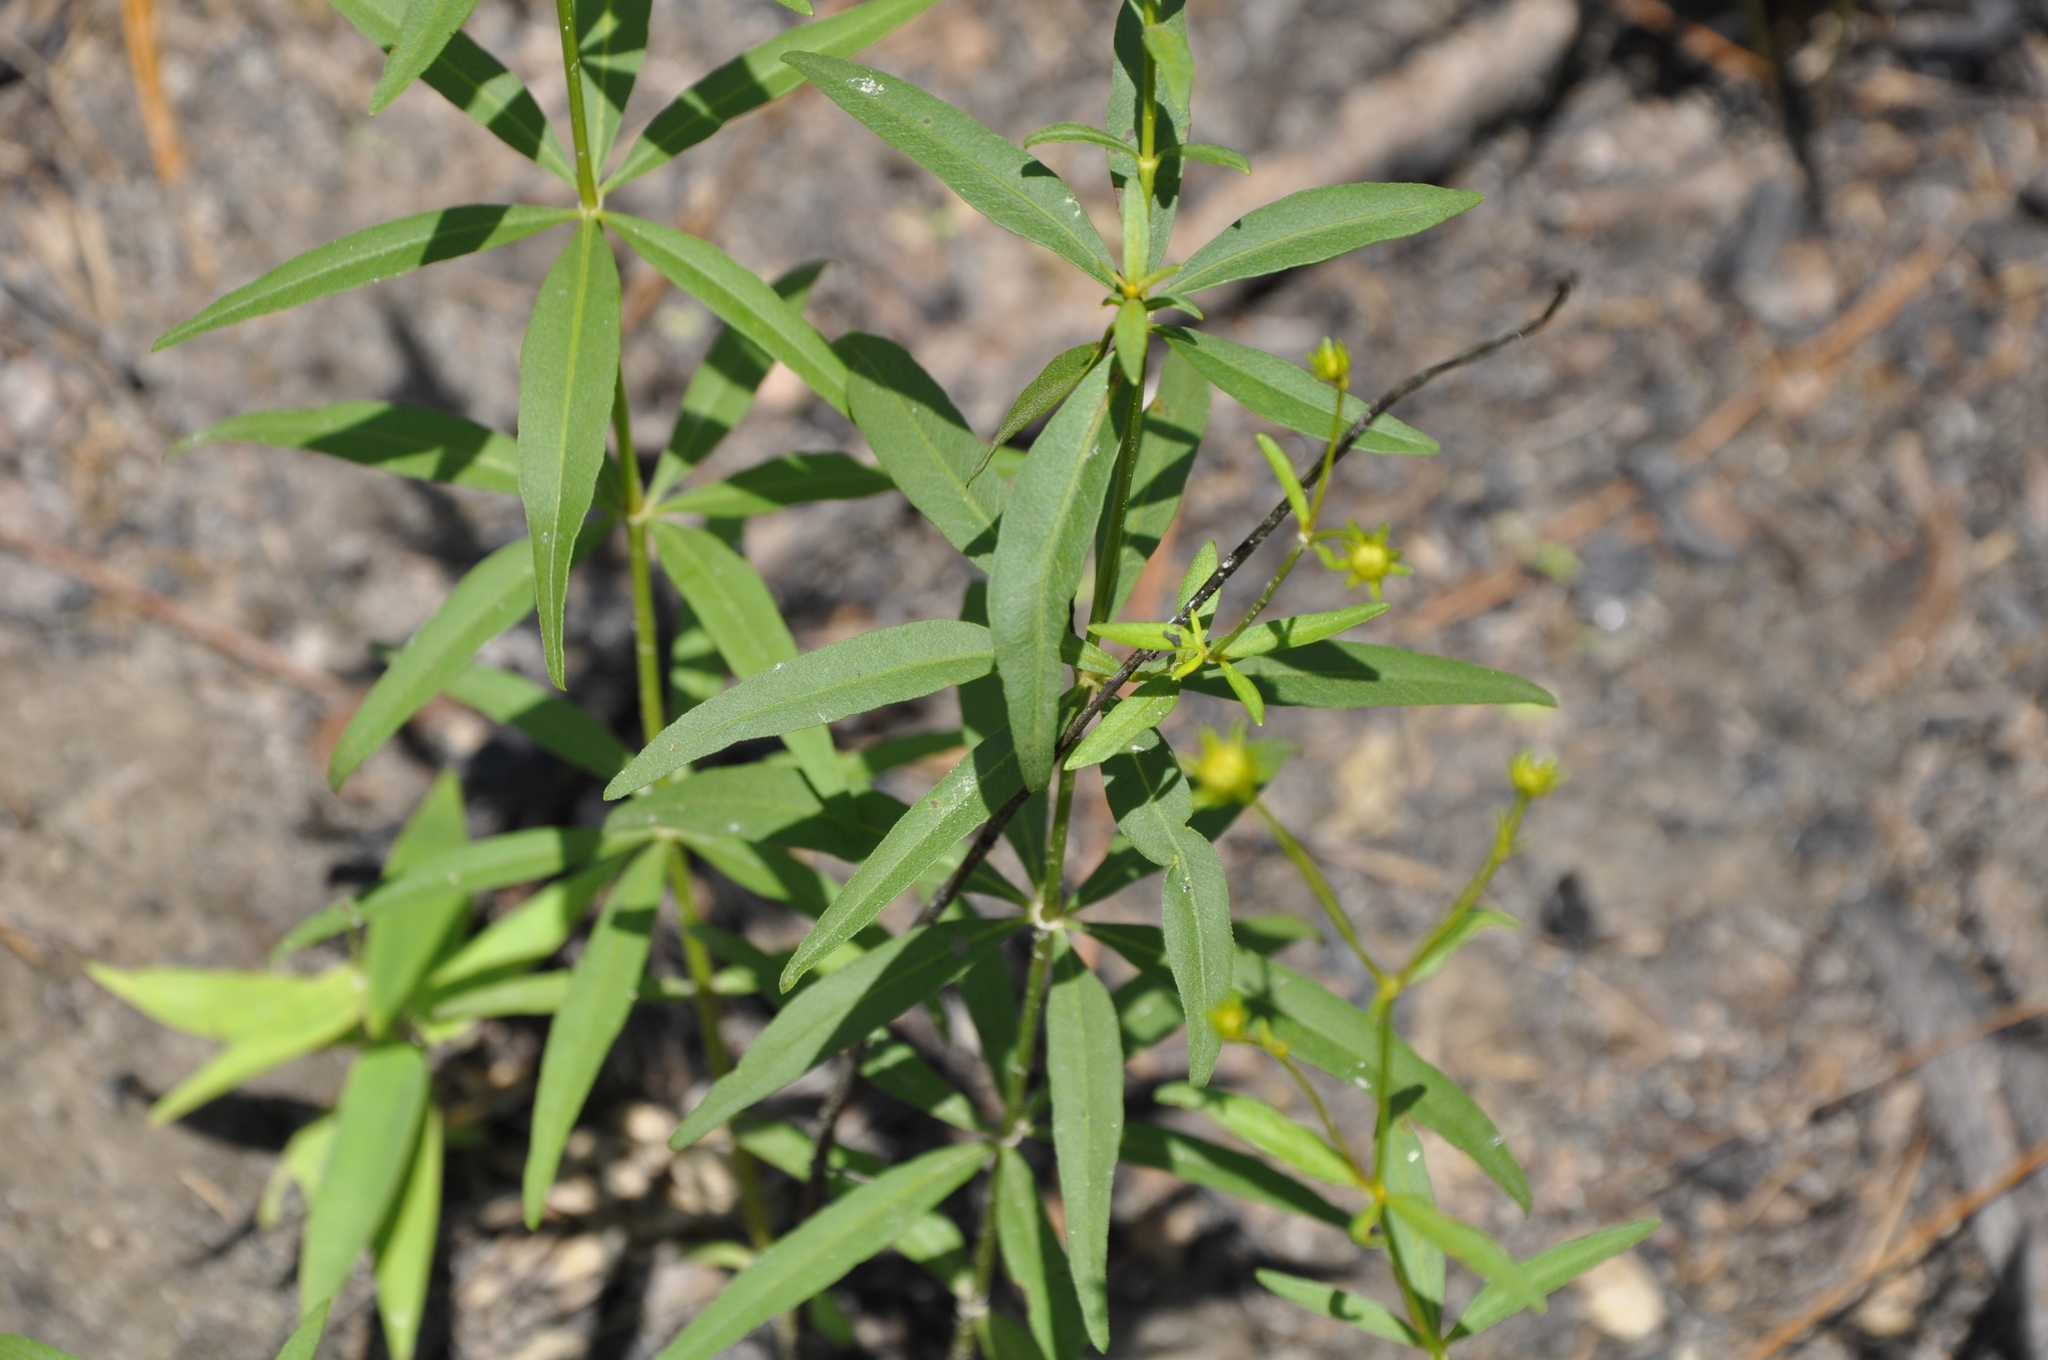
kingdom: Plantae
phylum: Tracheophyta
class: Magnoliopsida
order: Asterales
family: Asteraceae
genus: Coreopsis
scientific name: Coreopsis major
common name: Forest tickseed
